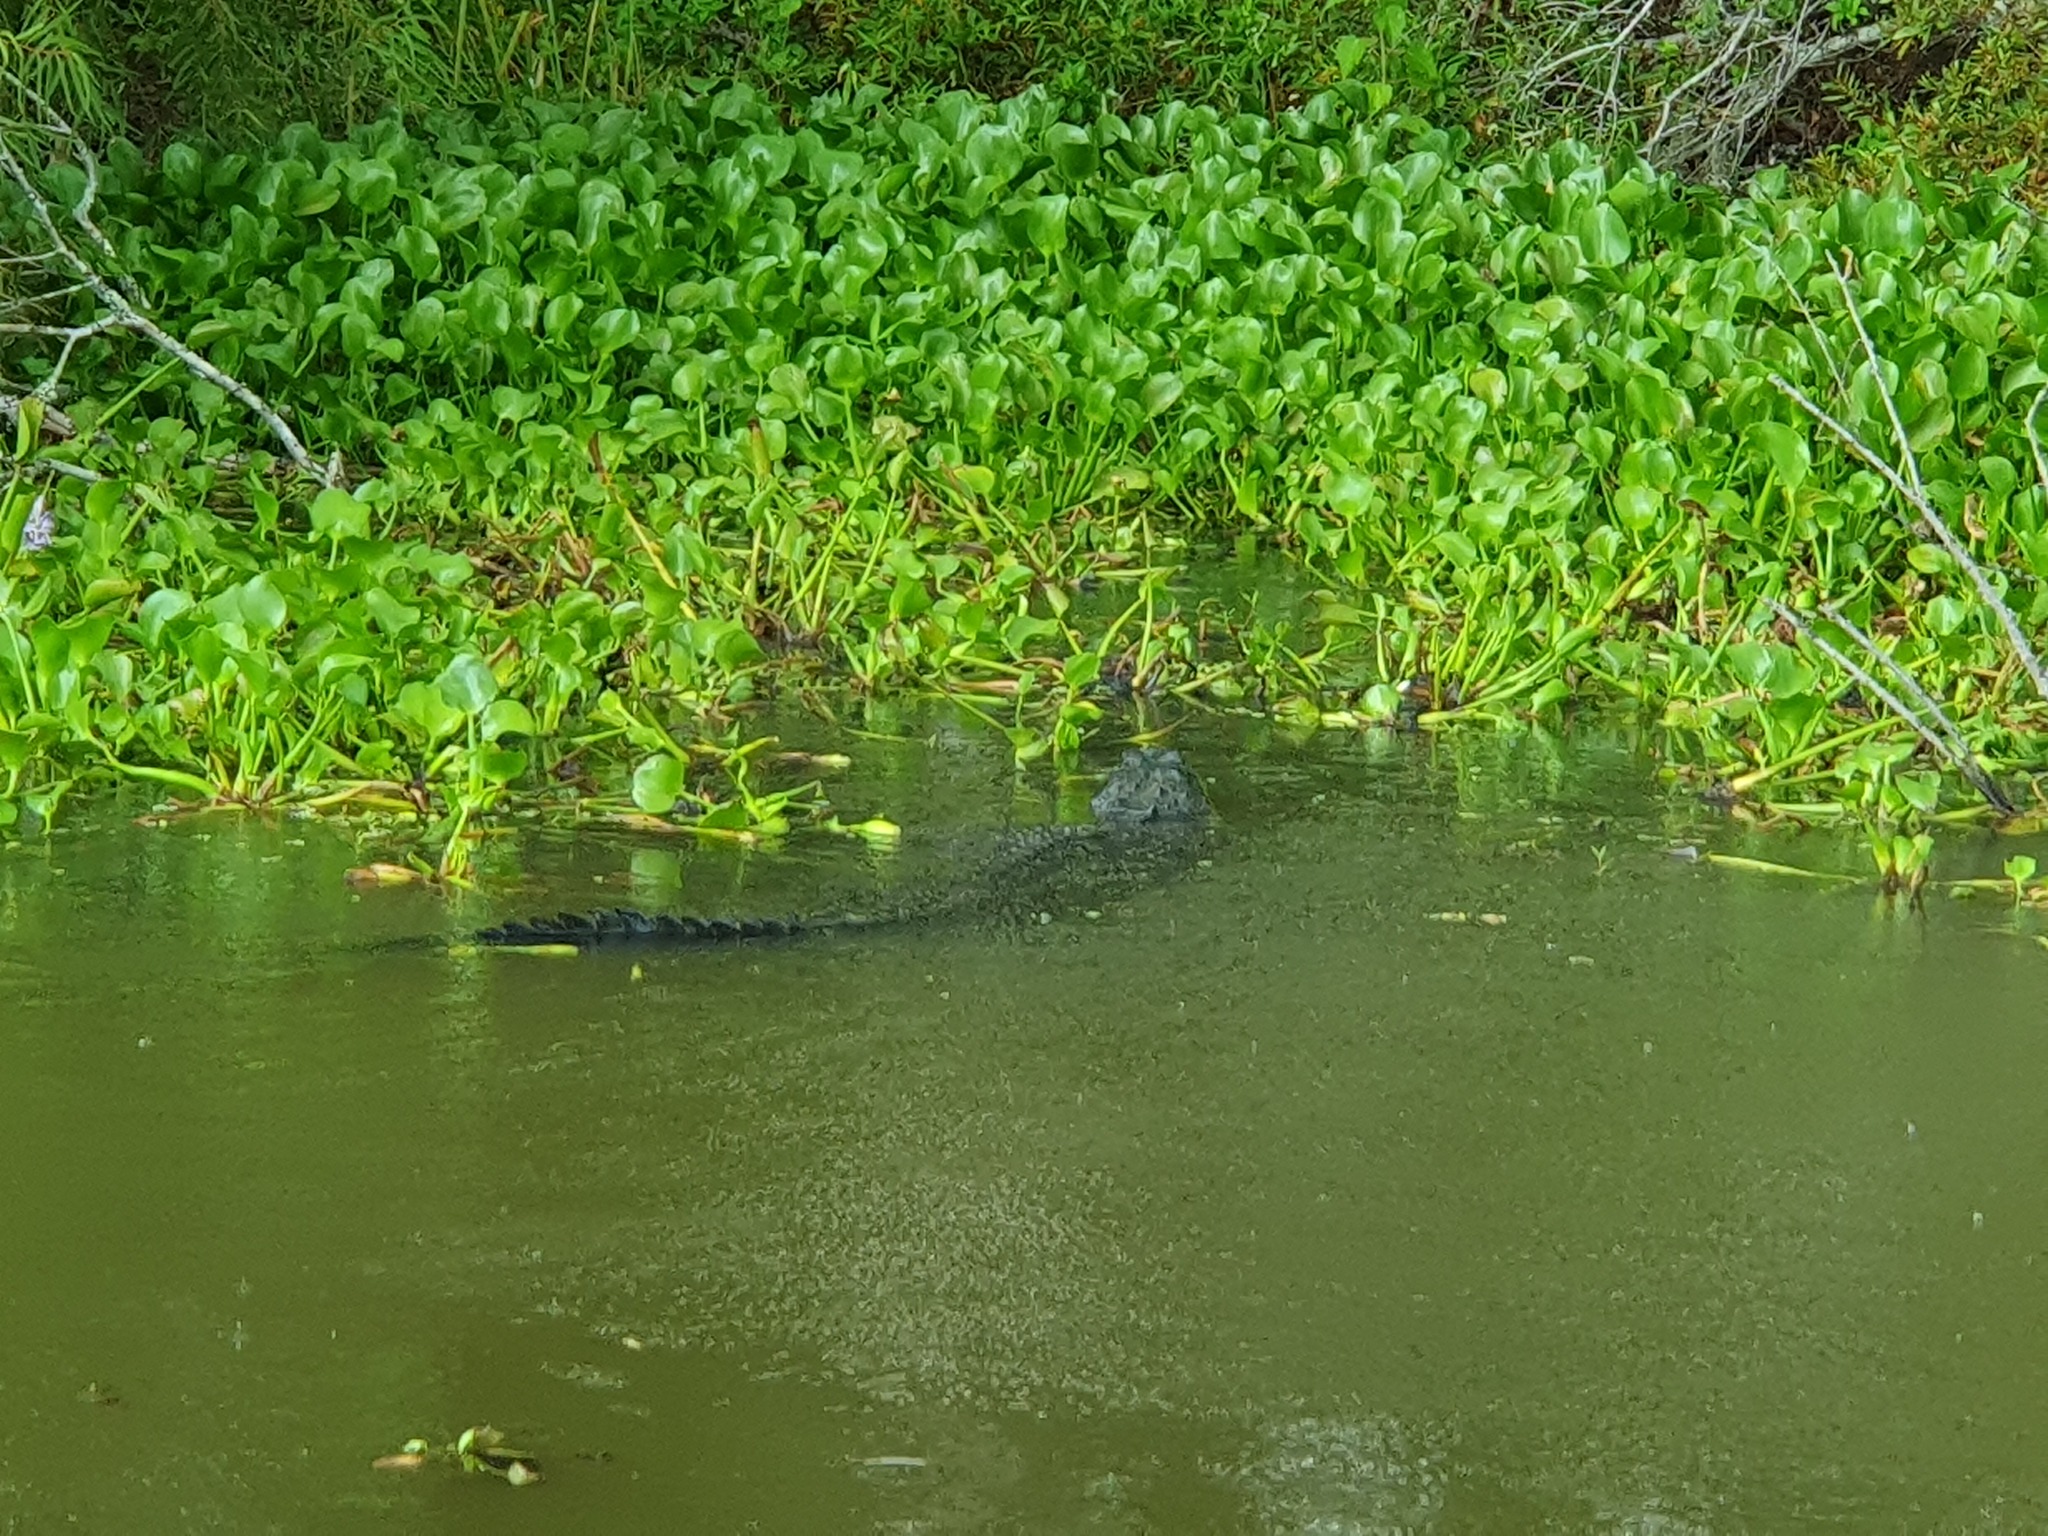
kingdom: Animalia
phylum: Chordata
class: Crocodylia
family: Alligatoridae
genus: Alligator
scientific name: Alligator mississippiensis
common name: American alligator
